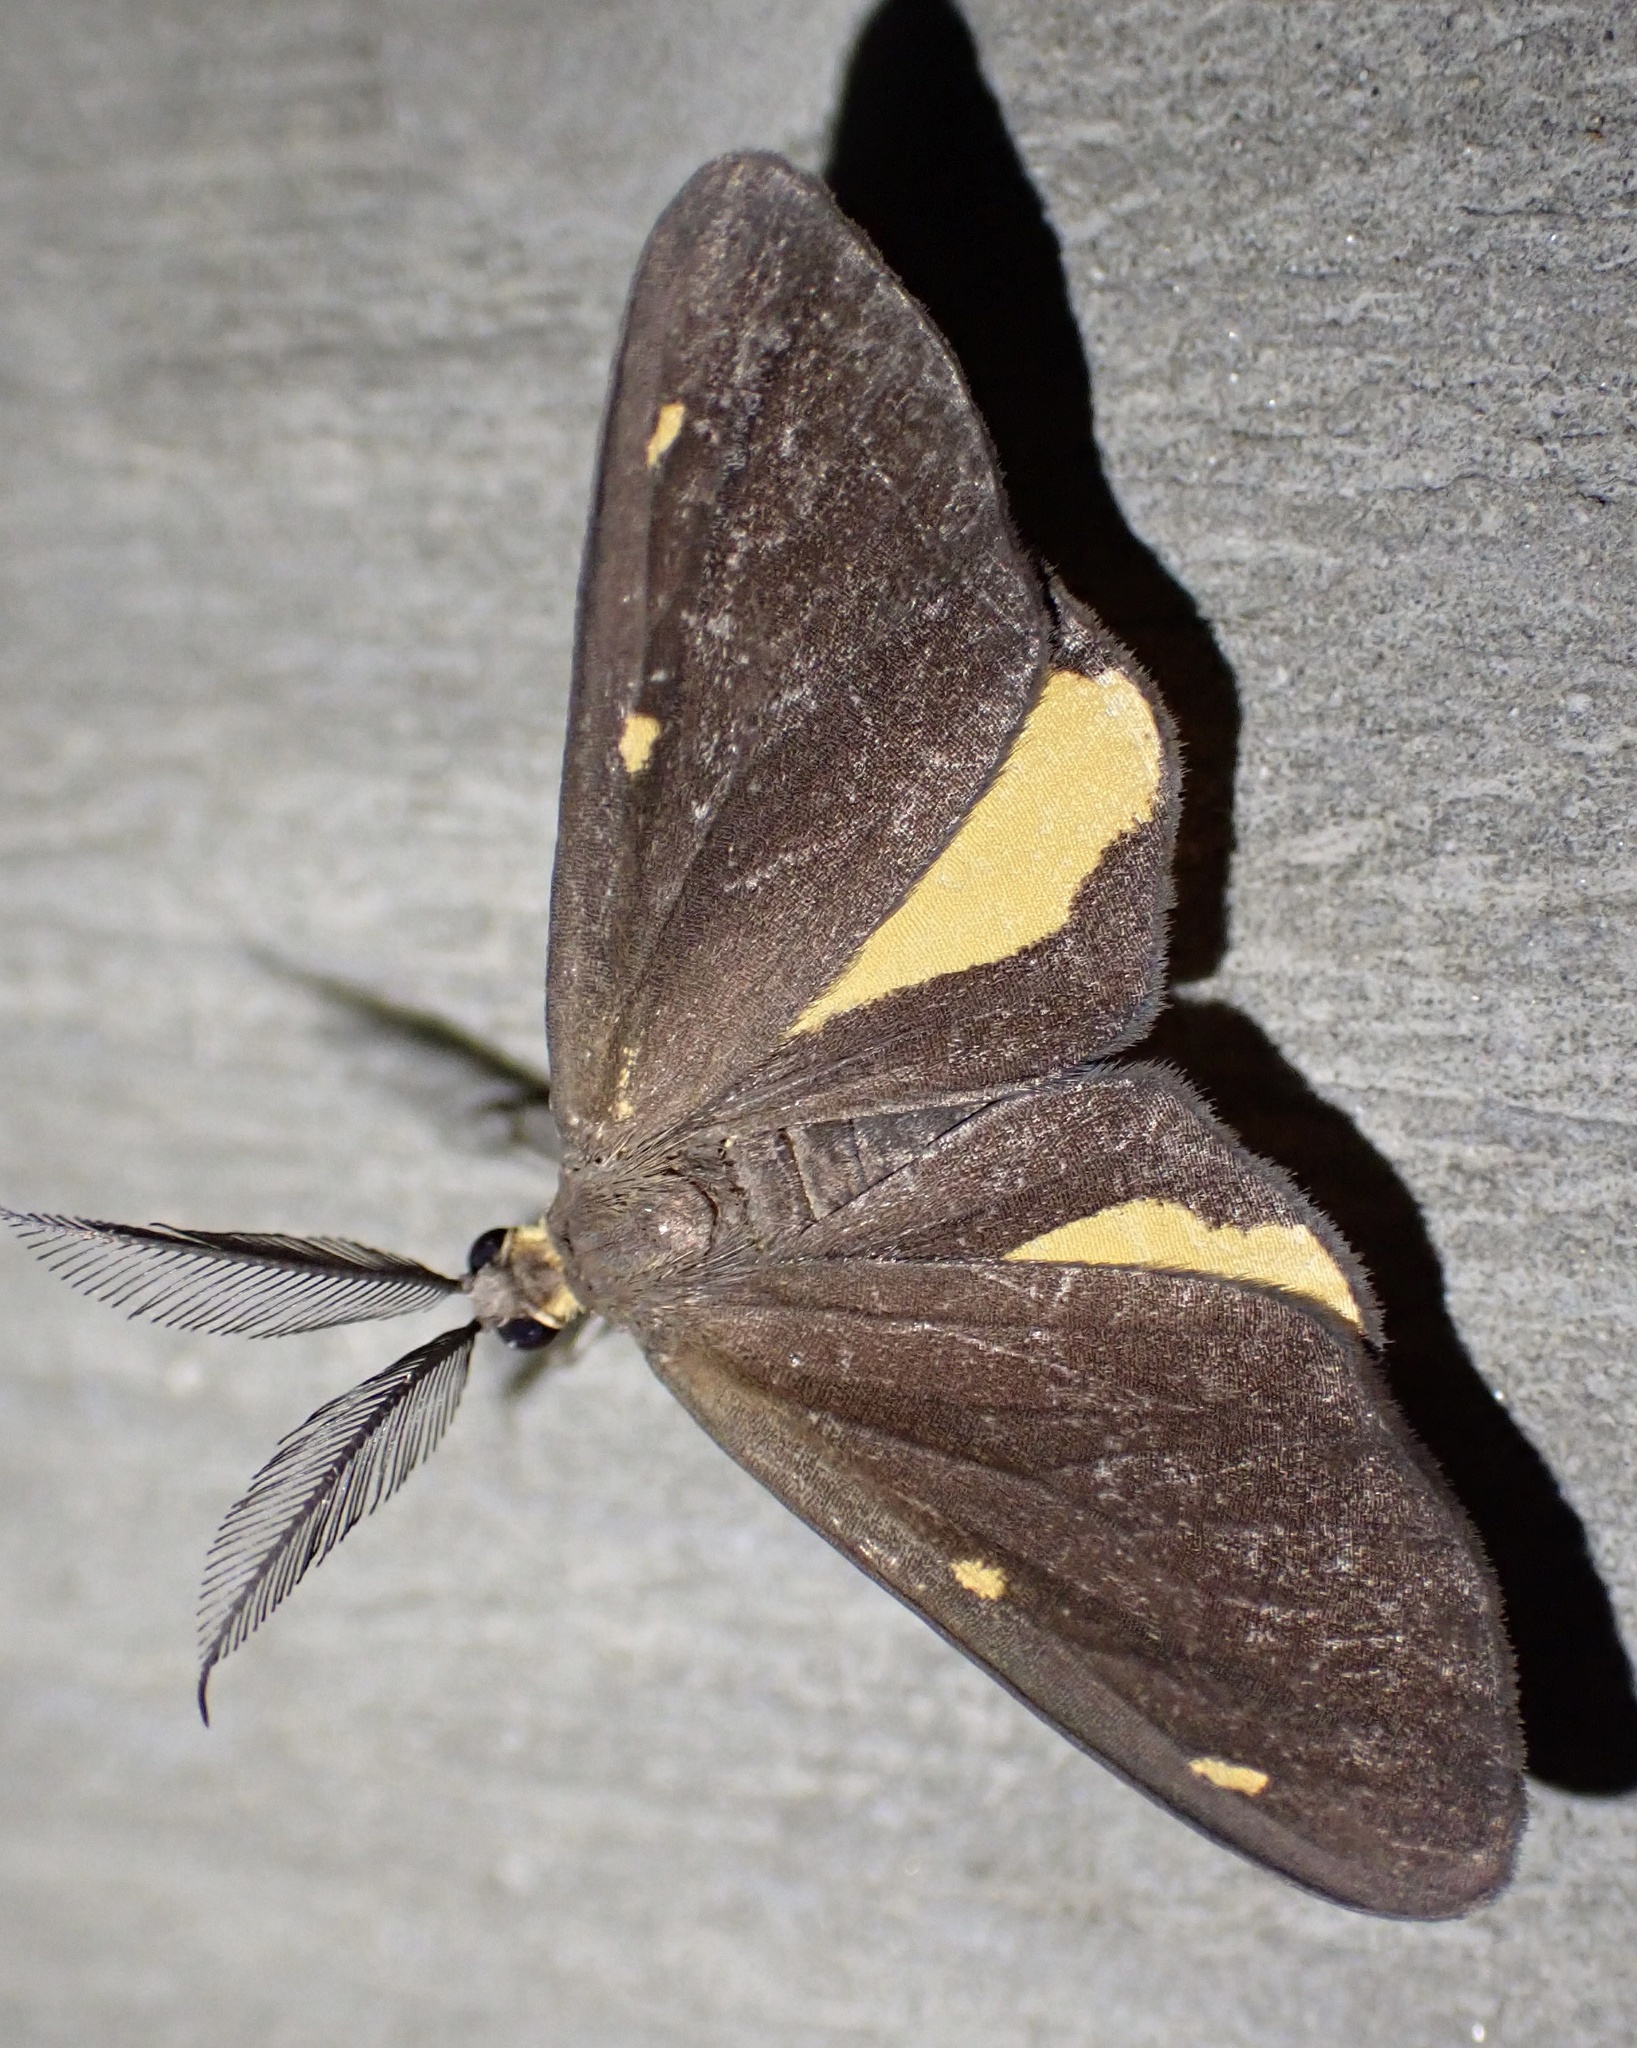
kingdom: Animalia
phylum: Arthropoda
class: Insecta
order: Lepidoptera
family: Geometridae
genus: Ctimene
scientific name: Ctimene tenebricosa
